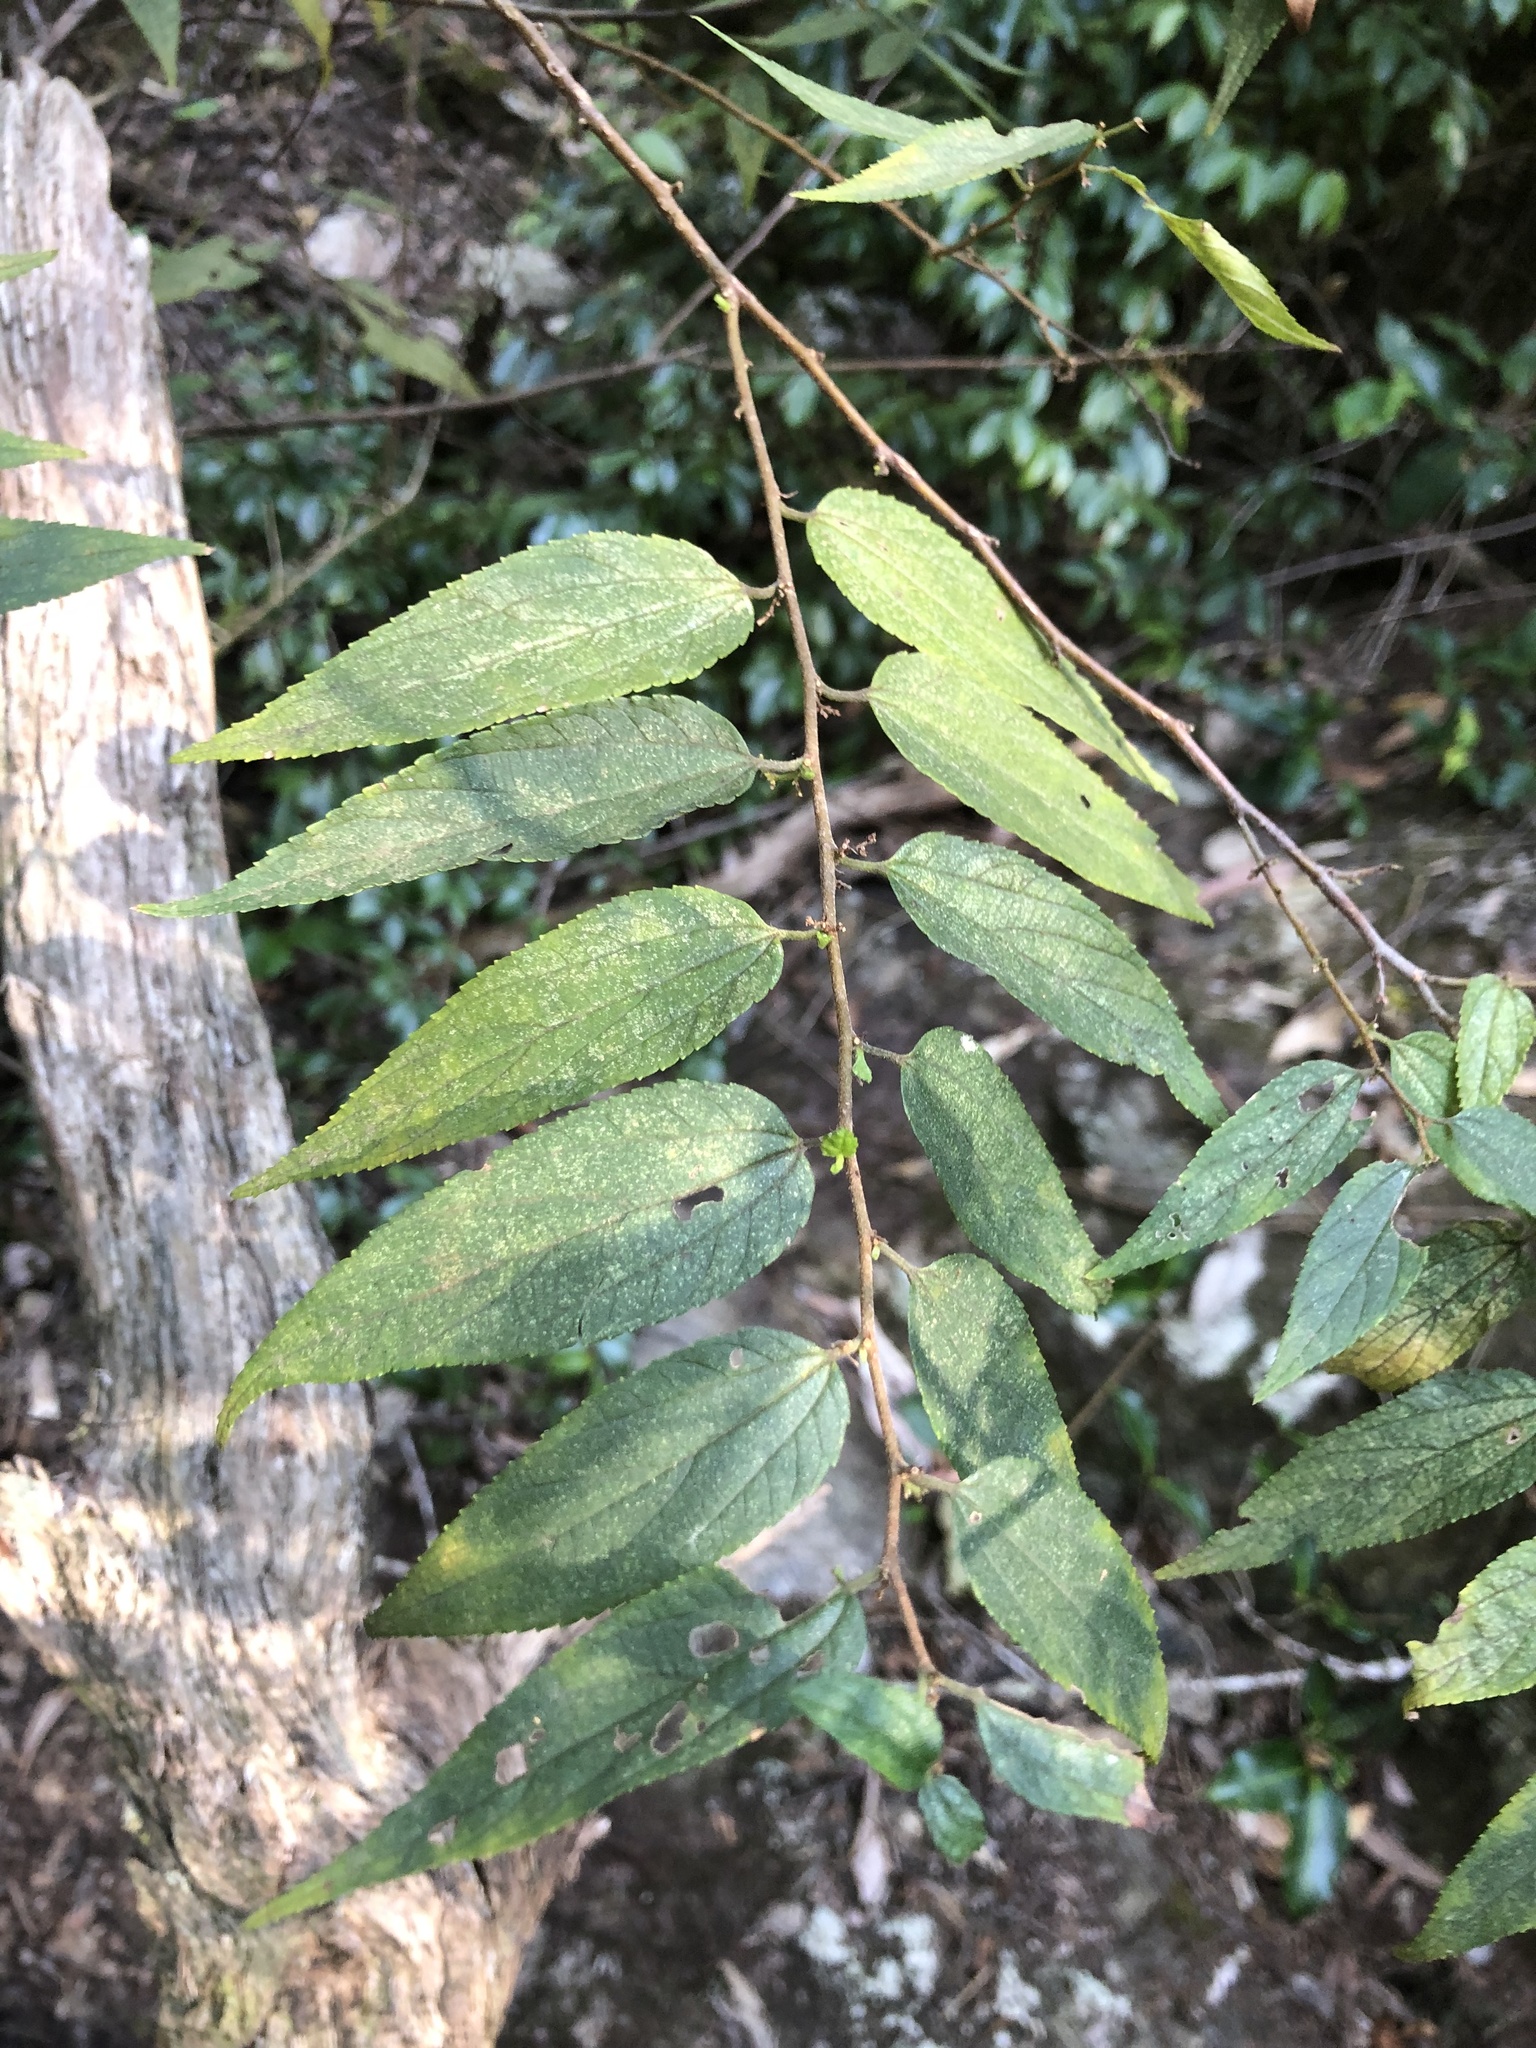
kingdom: Plantae
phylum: Tracheophyta
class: Magnoliopsida
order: Rosales
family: Cannabaceae
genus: Trema
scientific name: Trema tomentosum
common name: Peach-leaf-poisonbush
